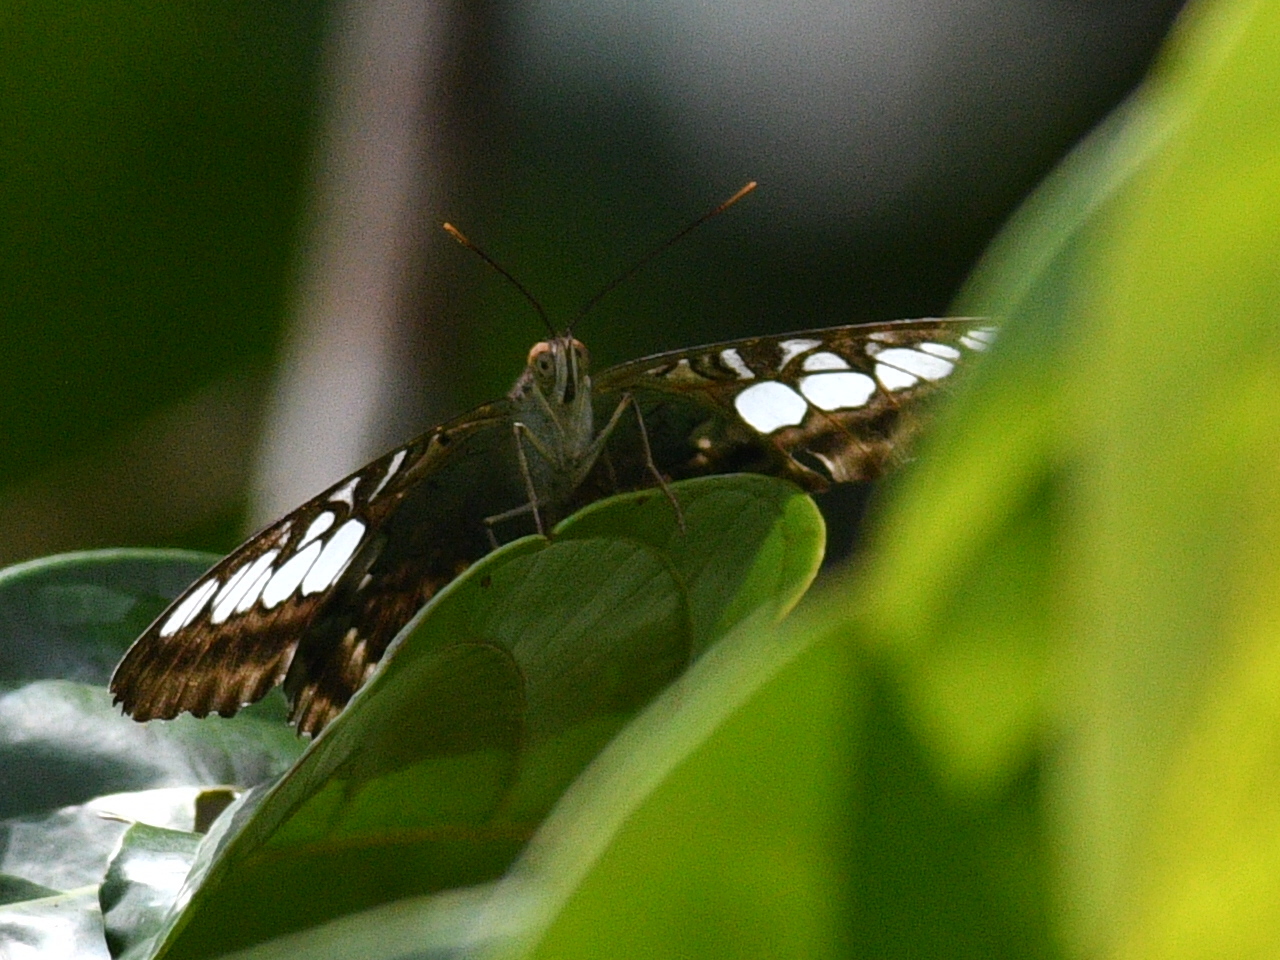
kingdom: Animalia
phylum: Arthropoda
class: Insecta
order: Lepidoptera
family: Nymphalidae
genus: Kallima
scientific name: Kallima sylvia
